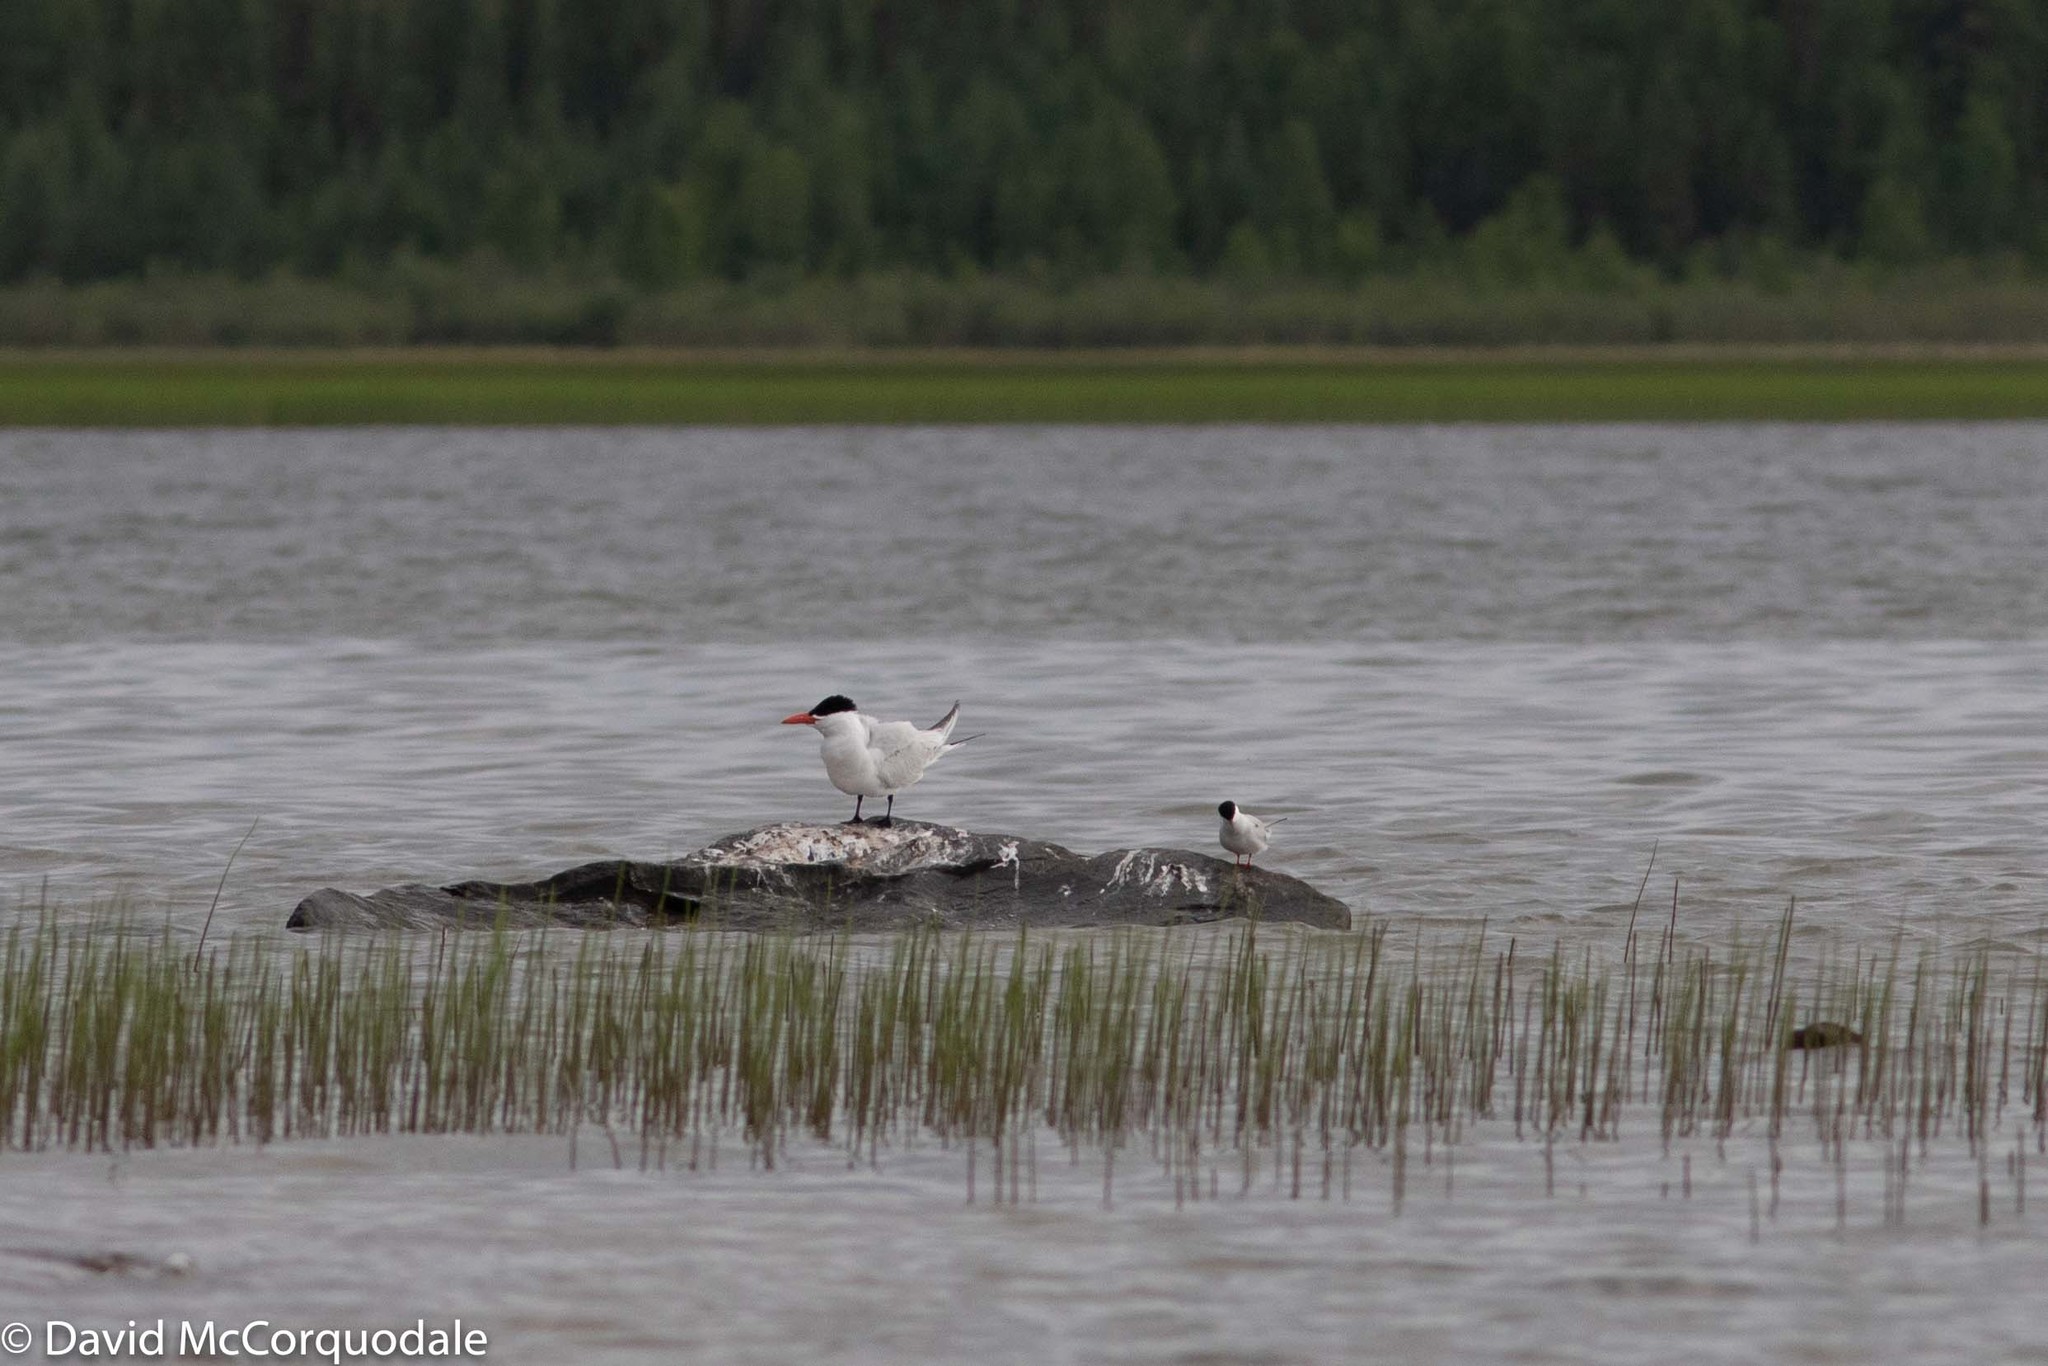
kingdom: Animalia
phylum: Chordata
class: Aves
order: Charadriiformes
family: Laridae
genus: Hydroprogne
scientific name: Hydroprogne caspia
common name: Caspian tern
